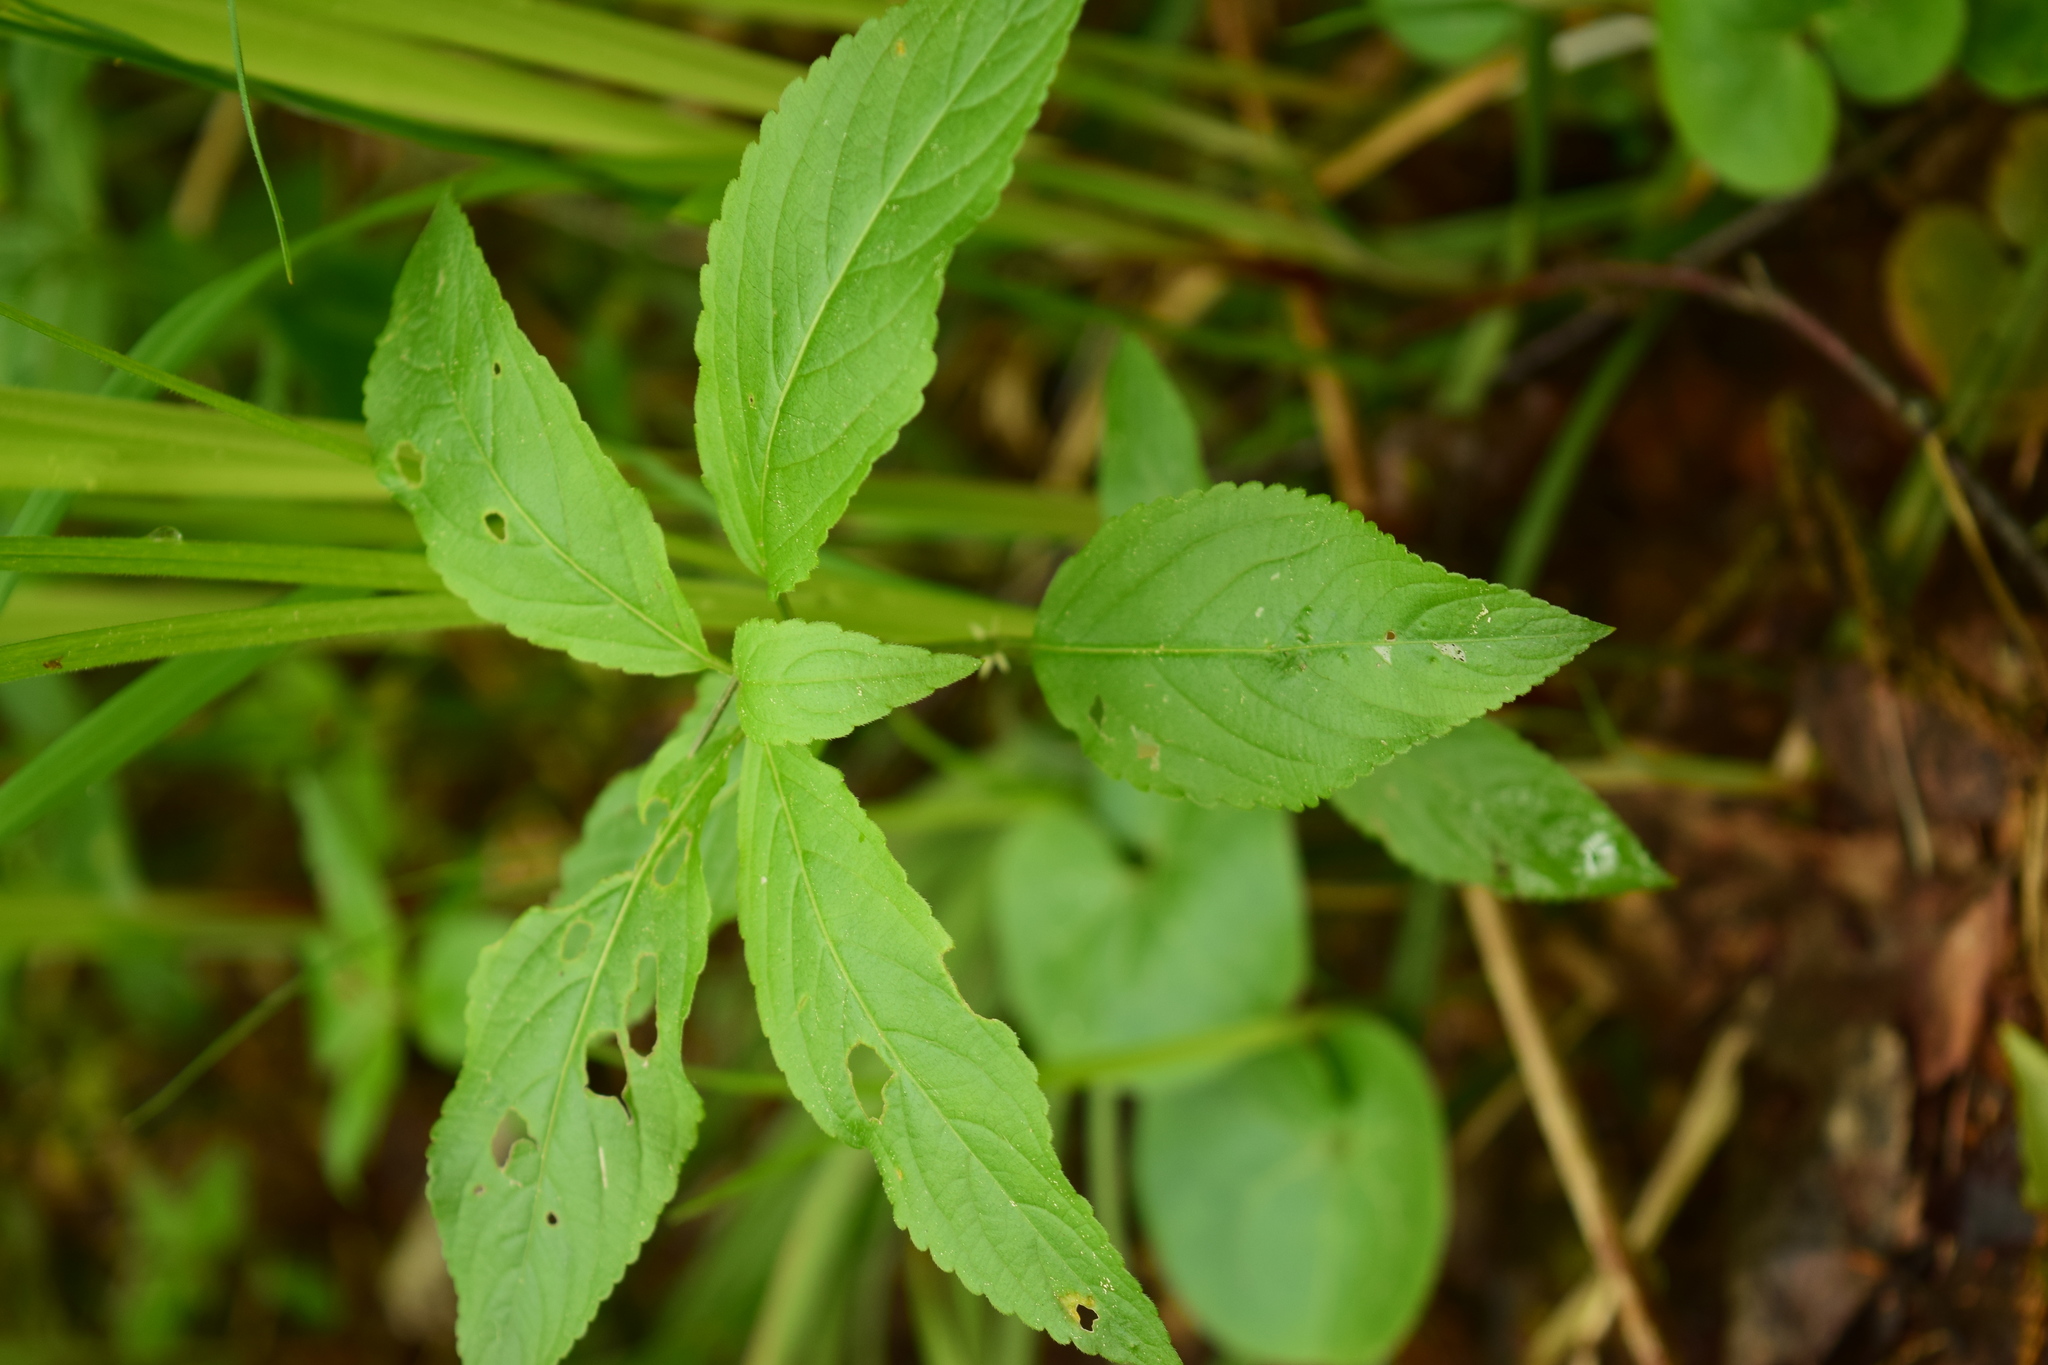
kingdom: Plantae
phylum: Tracheophyta
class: Magnoliopsida
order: Malpighiales
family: Euphorbiaceae
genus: Mercurialis
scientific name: Mercurialis perennis
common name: Dog mercury
